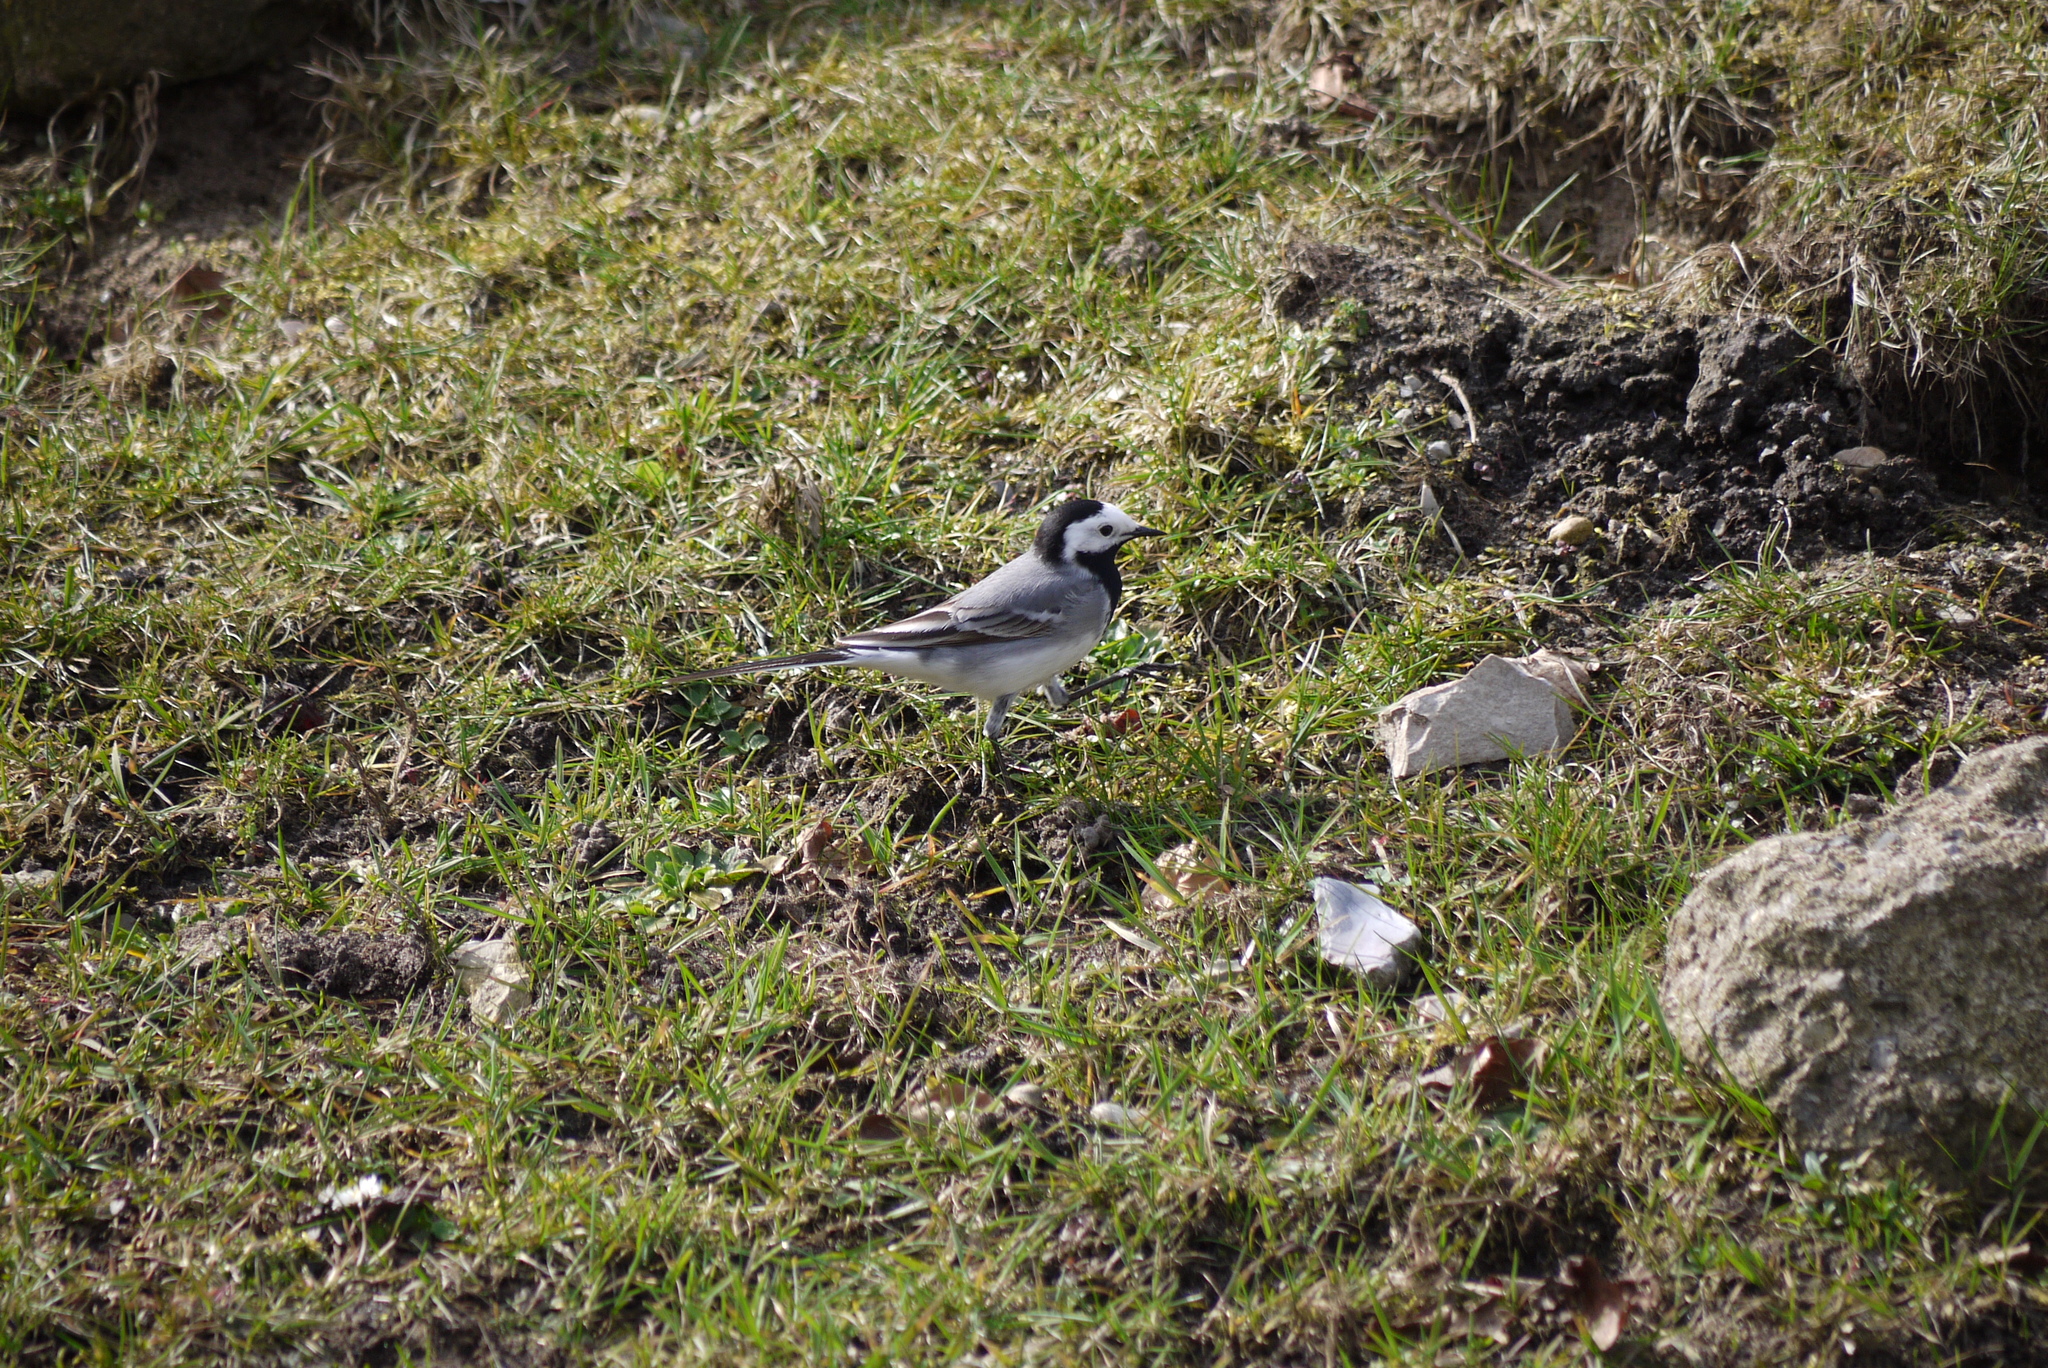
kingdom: Animalia
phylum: Chordata
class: Aves
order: Passeriformes
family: Motacillidae
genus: Motacilla
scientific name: Motacilla alba
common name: White wagtail
